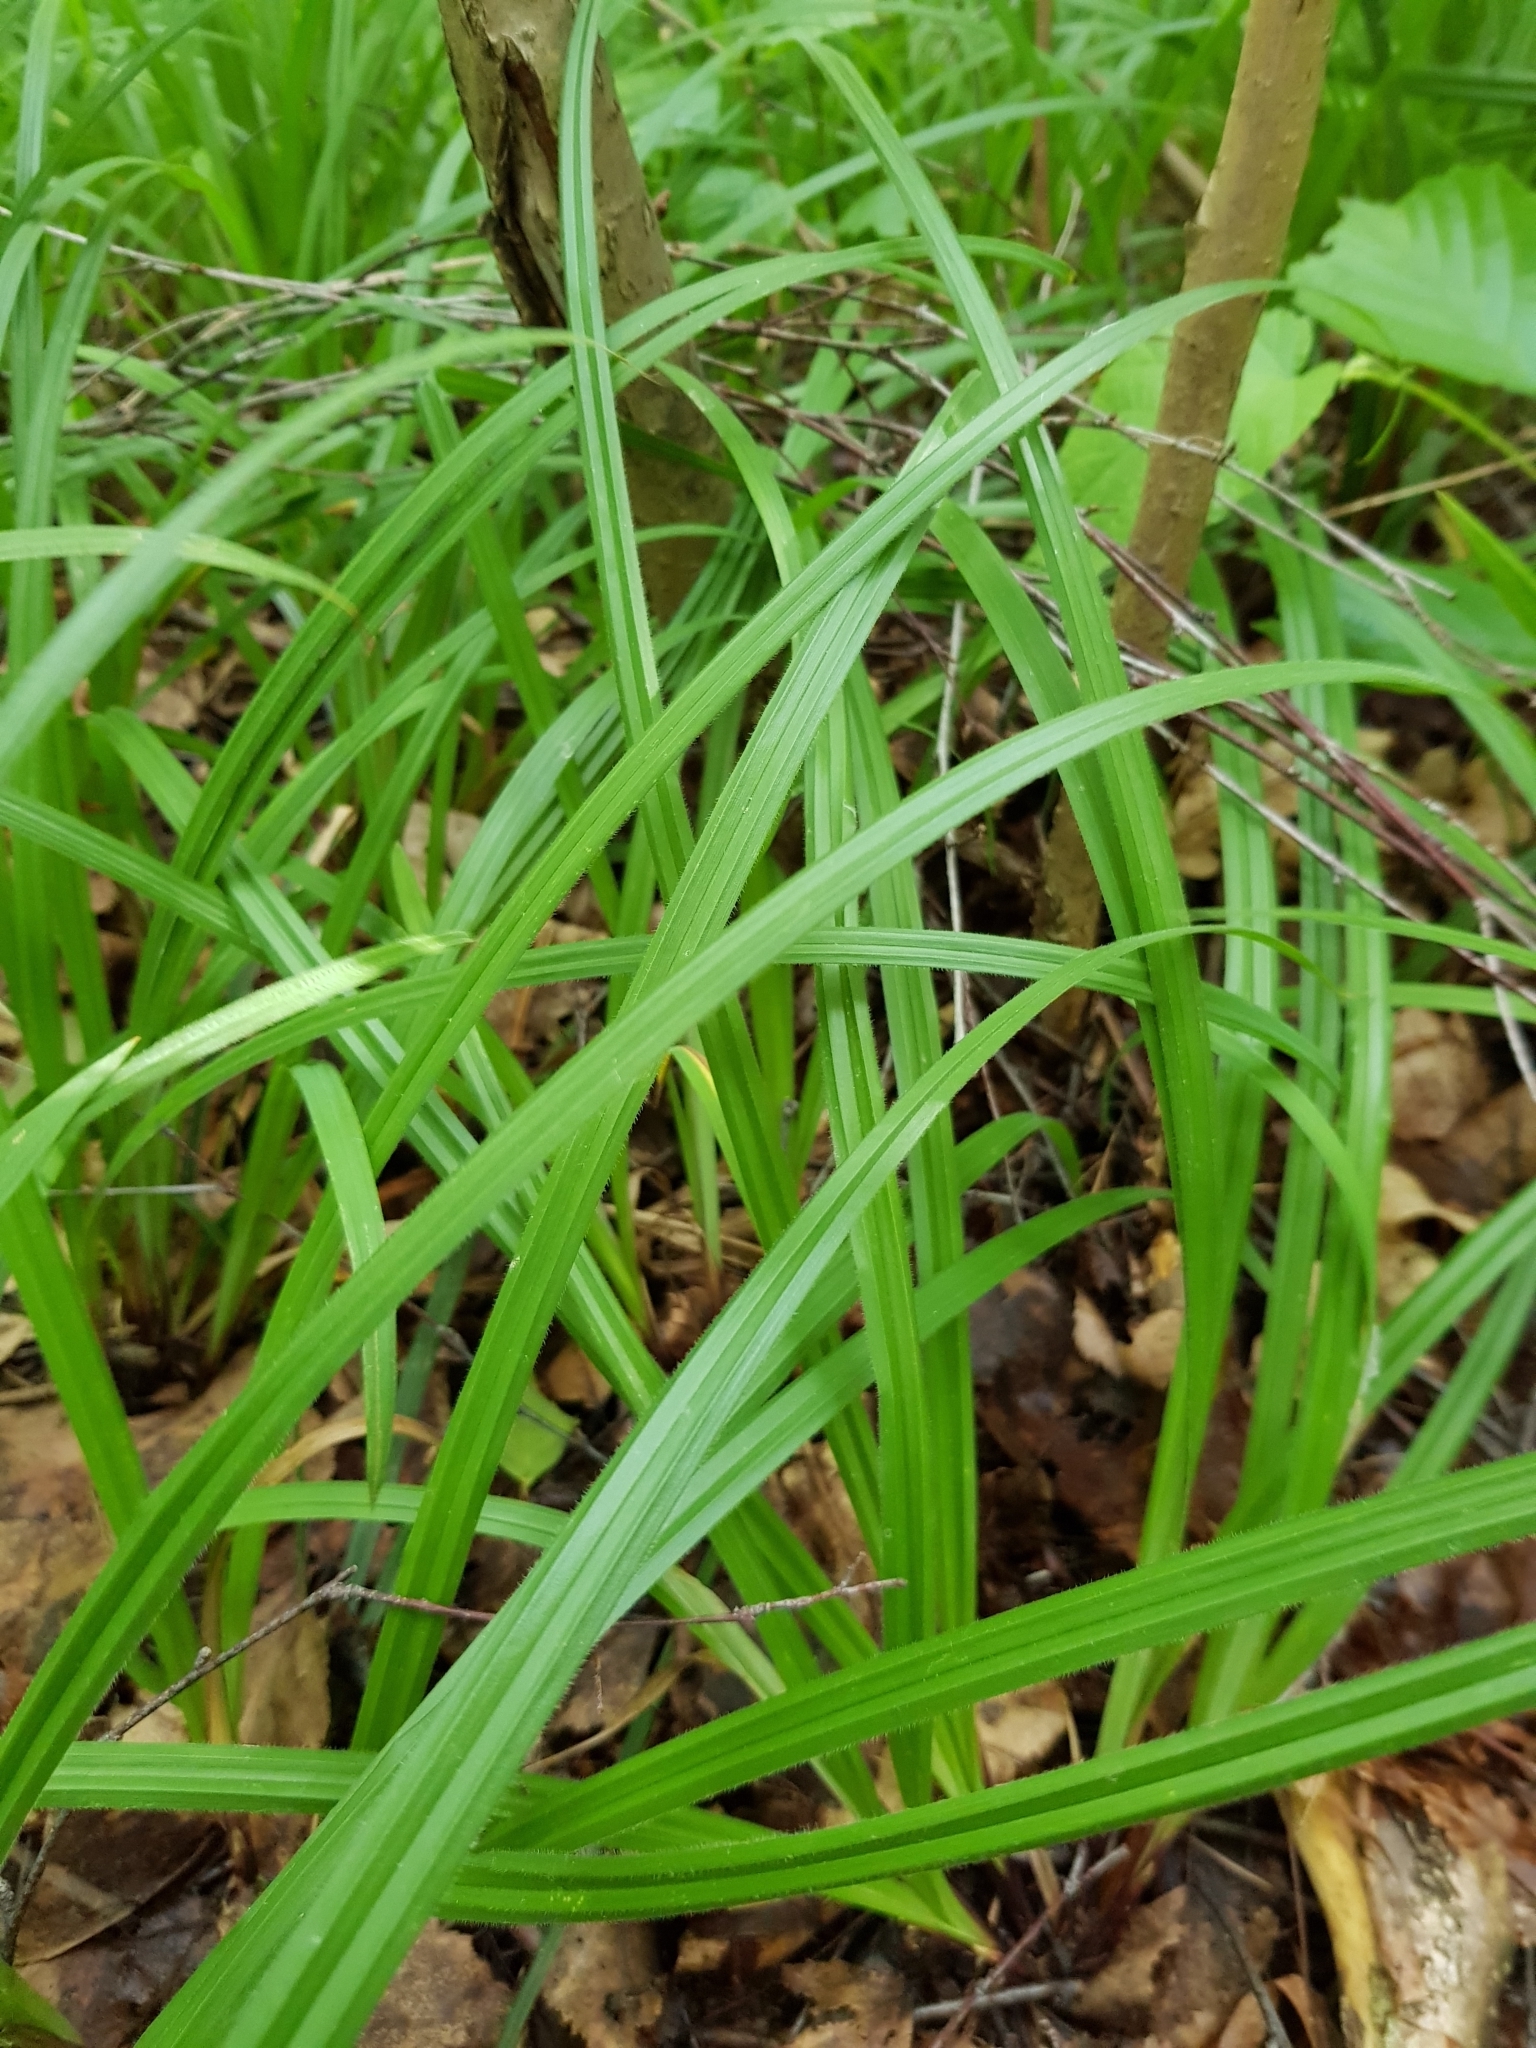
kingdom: Plantae
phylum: Tracheophyta
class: Liliopsida
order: Poales
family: Cyperaceae
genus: Carex
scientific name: Carex pilosa
